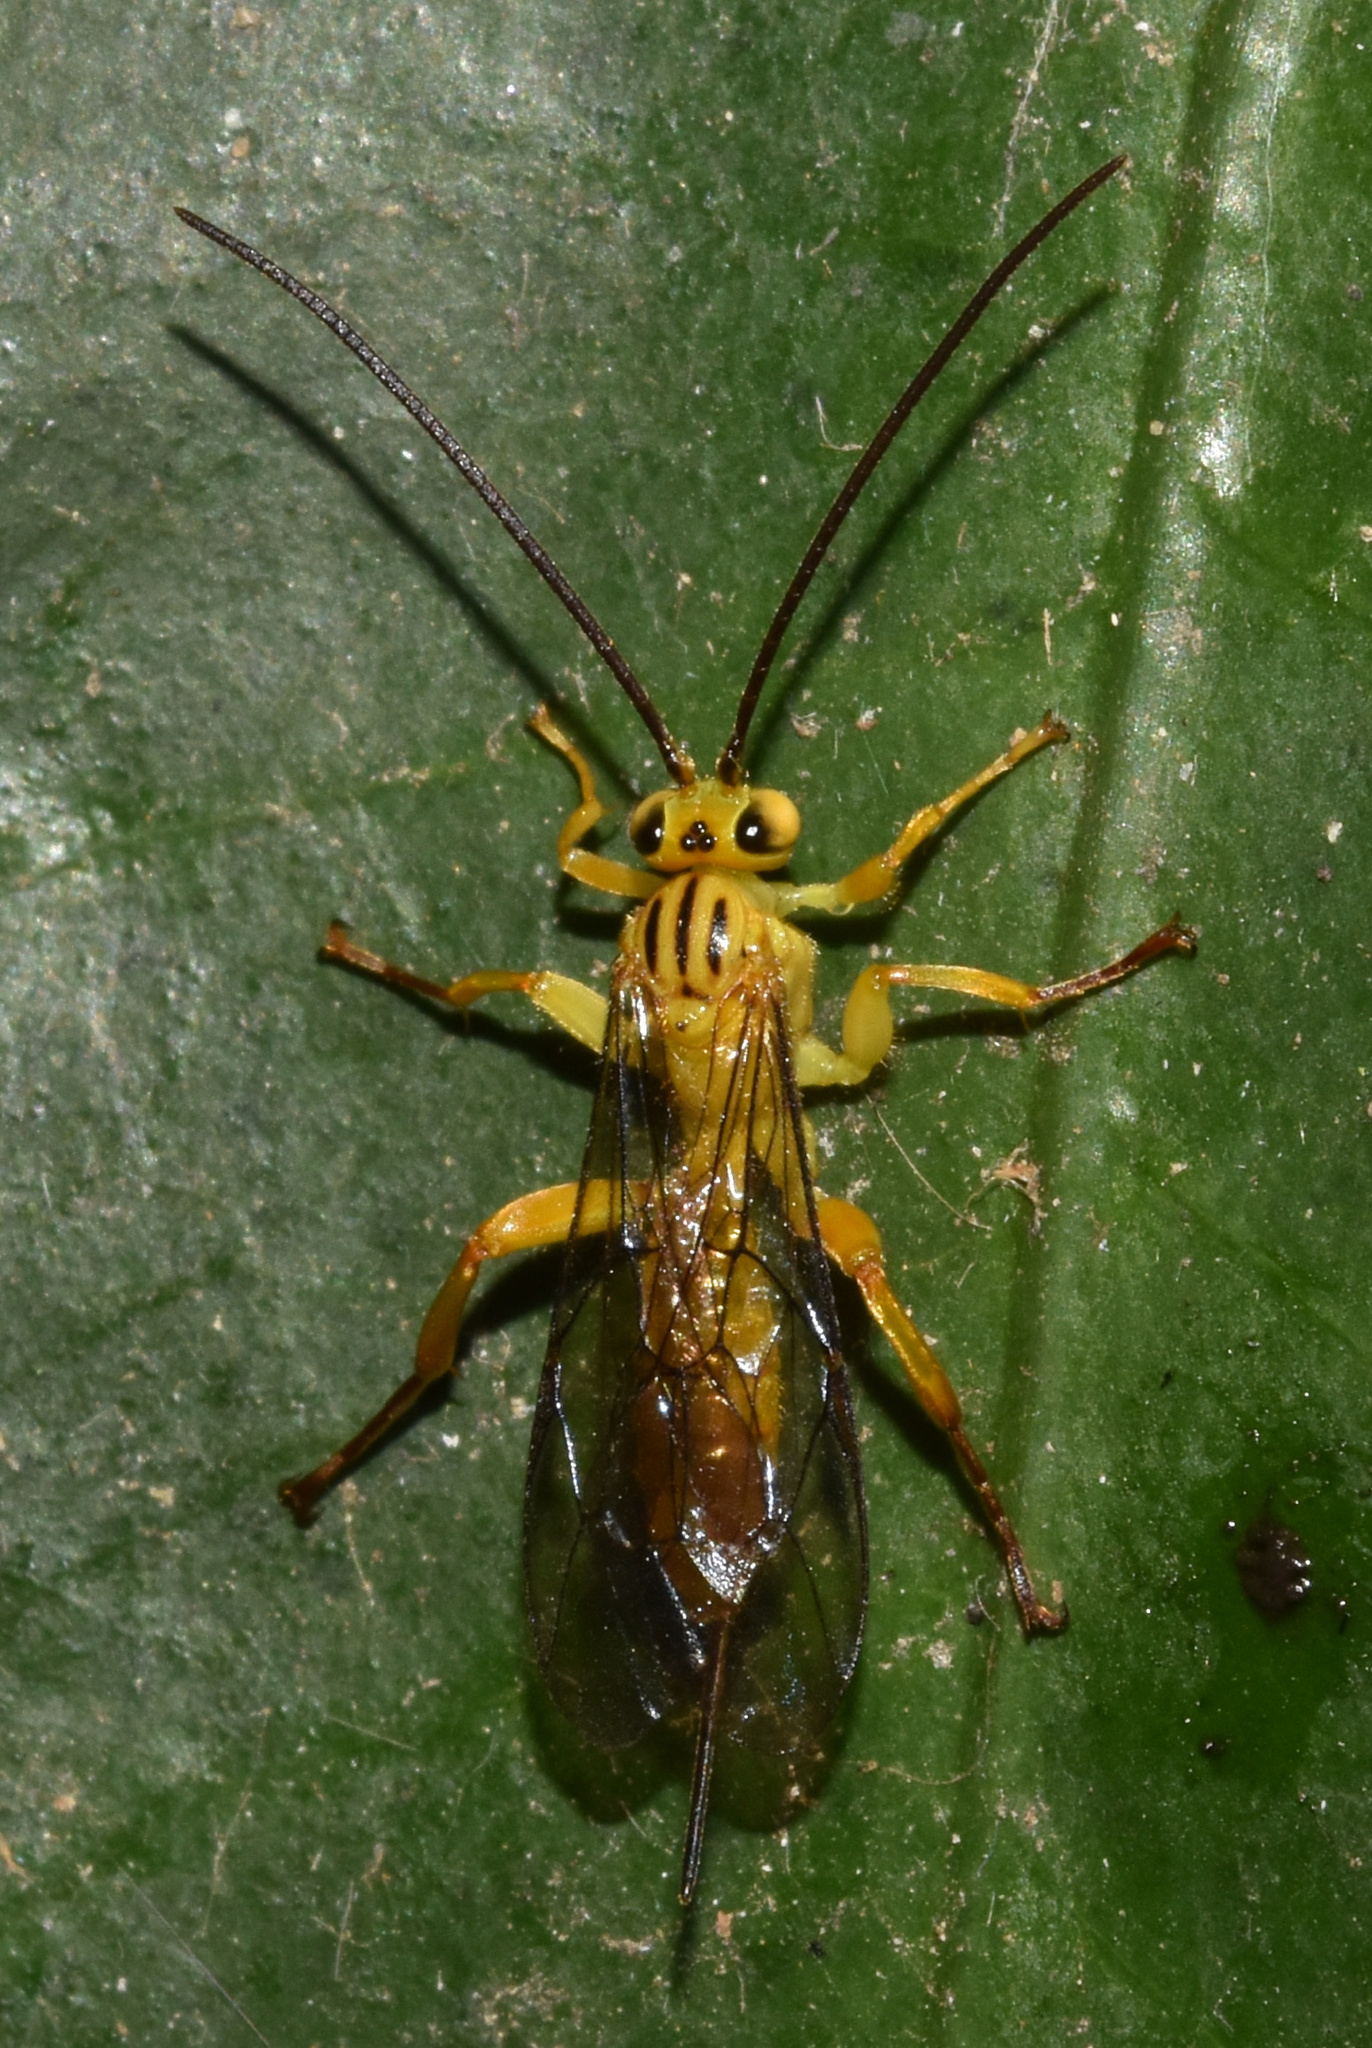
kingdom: Animalia
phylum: Arthropoda
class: Insecta
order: Hymenoptera
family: Ichneumonidae
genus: Theronia
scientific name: Theronia lurida
